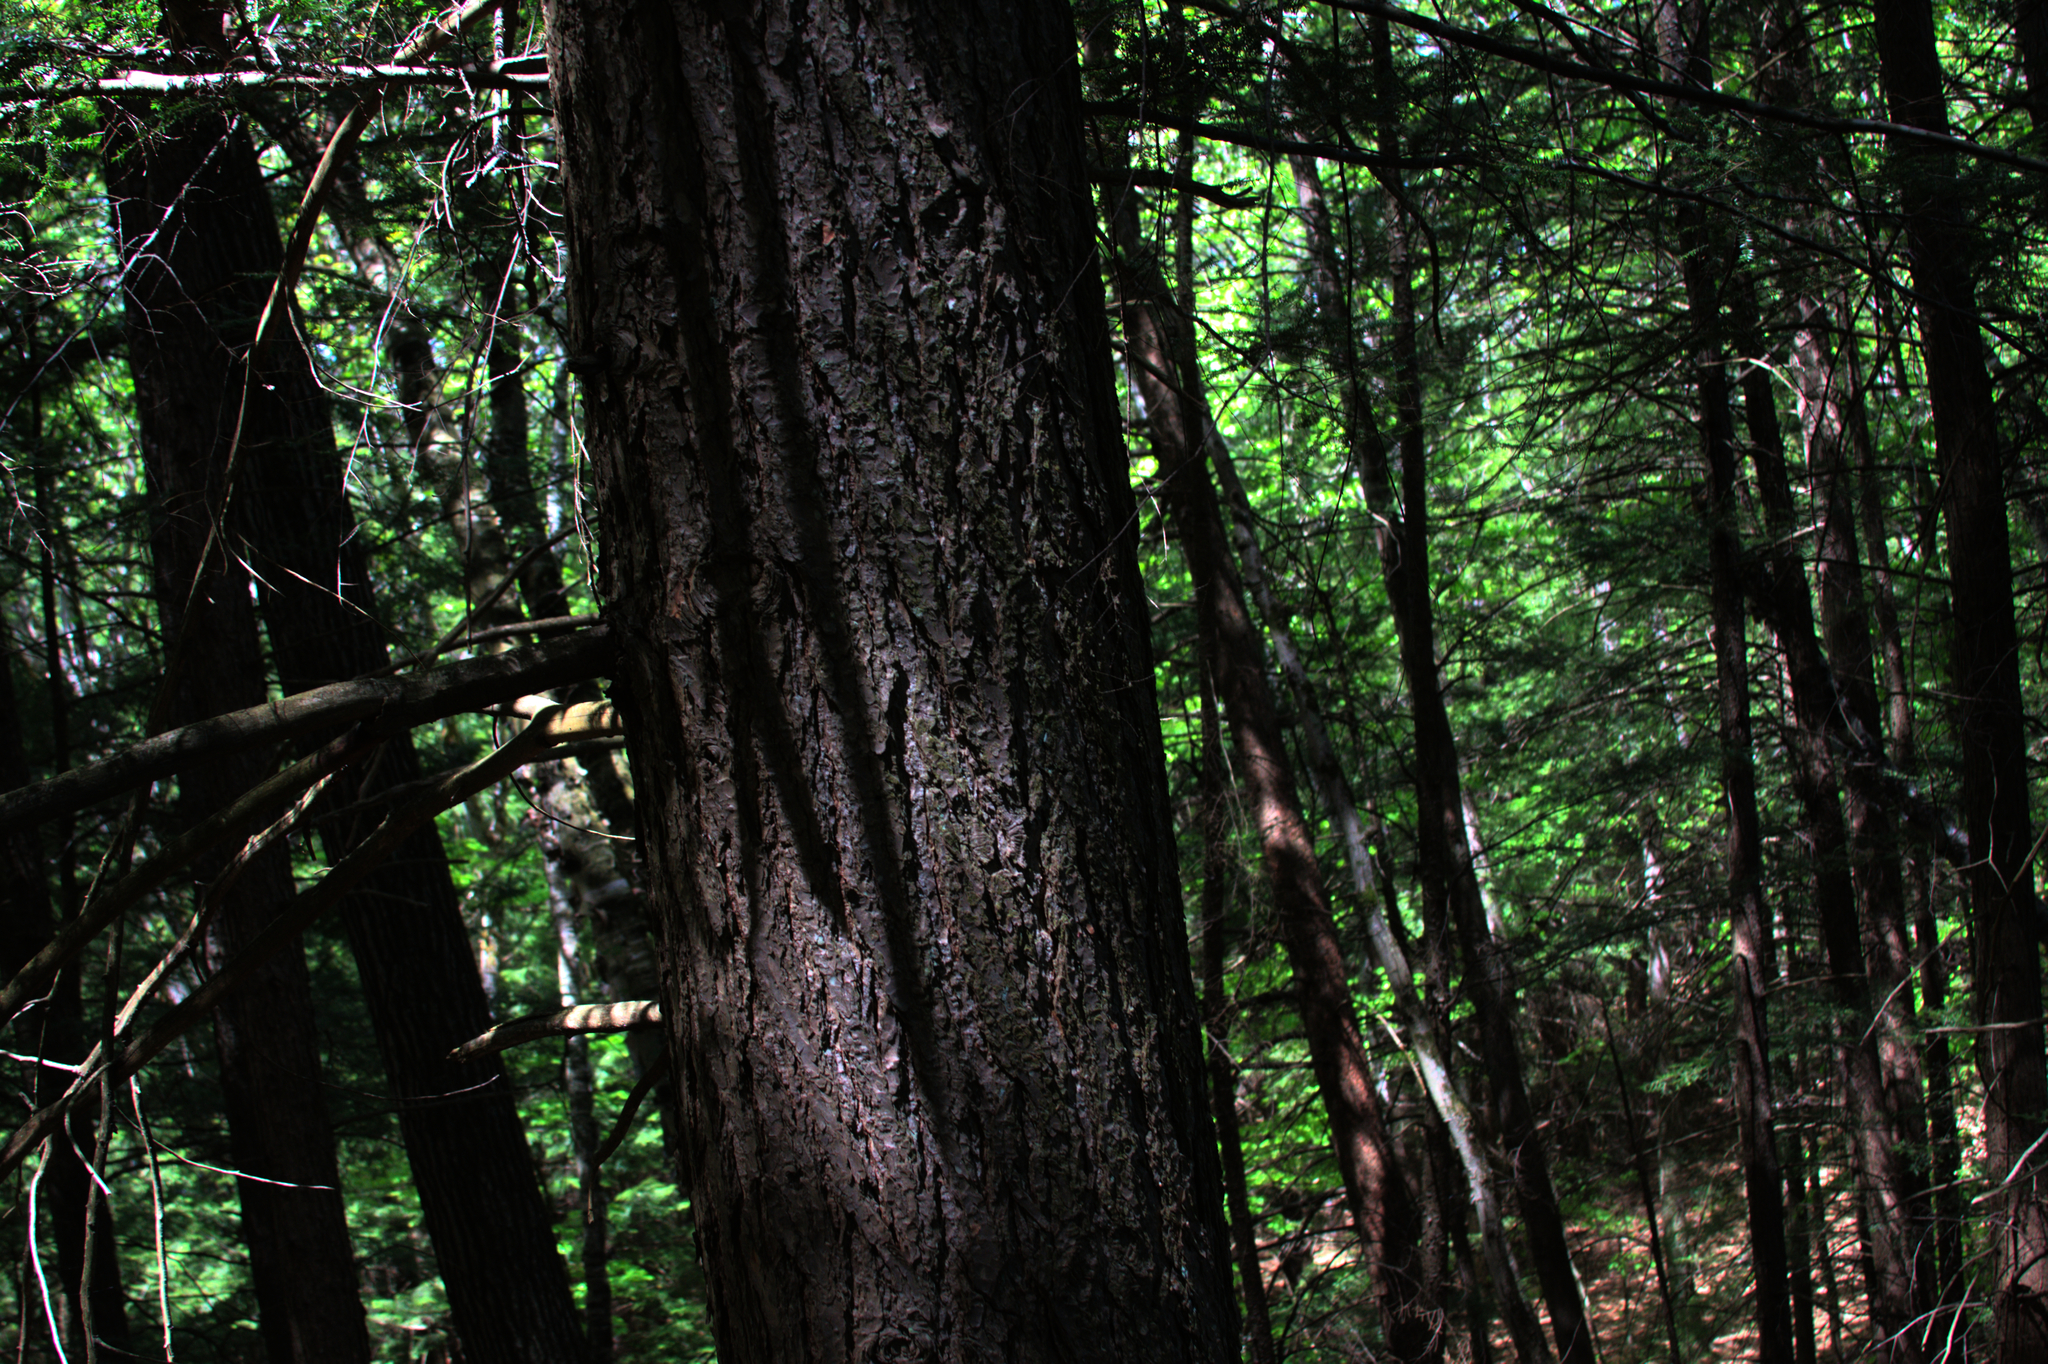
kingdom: Plantae
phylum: Tracheophyta
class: Pinopsida
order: Pinales
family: Pinaceae
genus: Tsuga
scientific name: Tsuga canadensis
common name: Eastern hemlock
